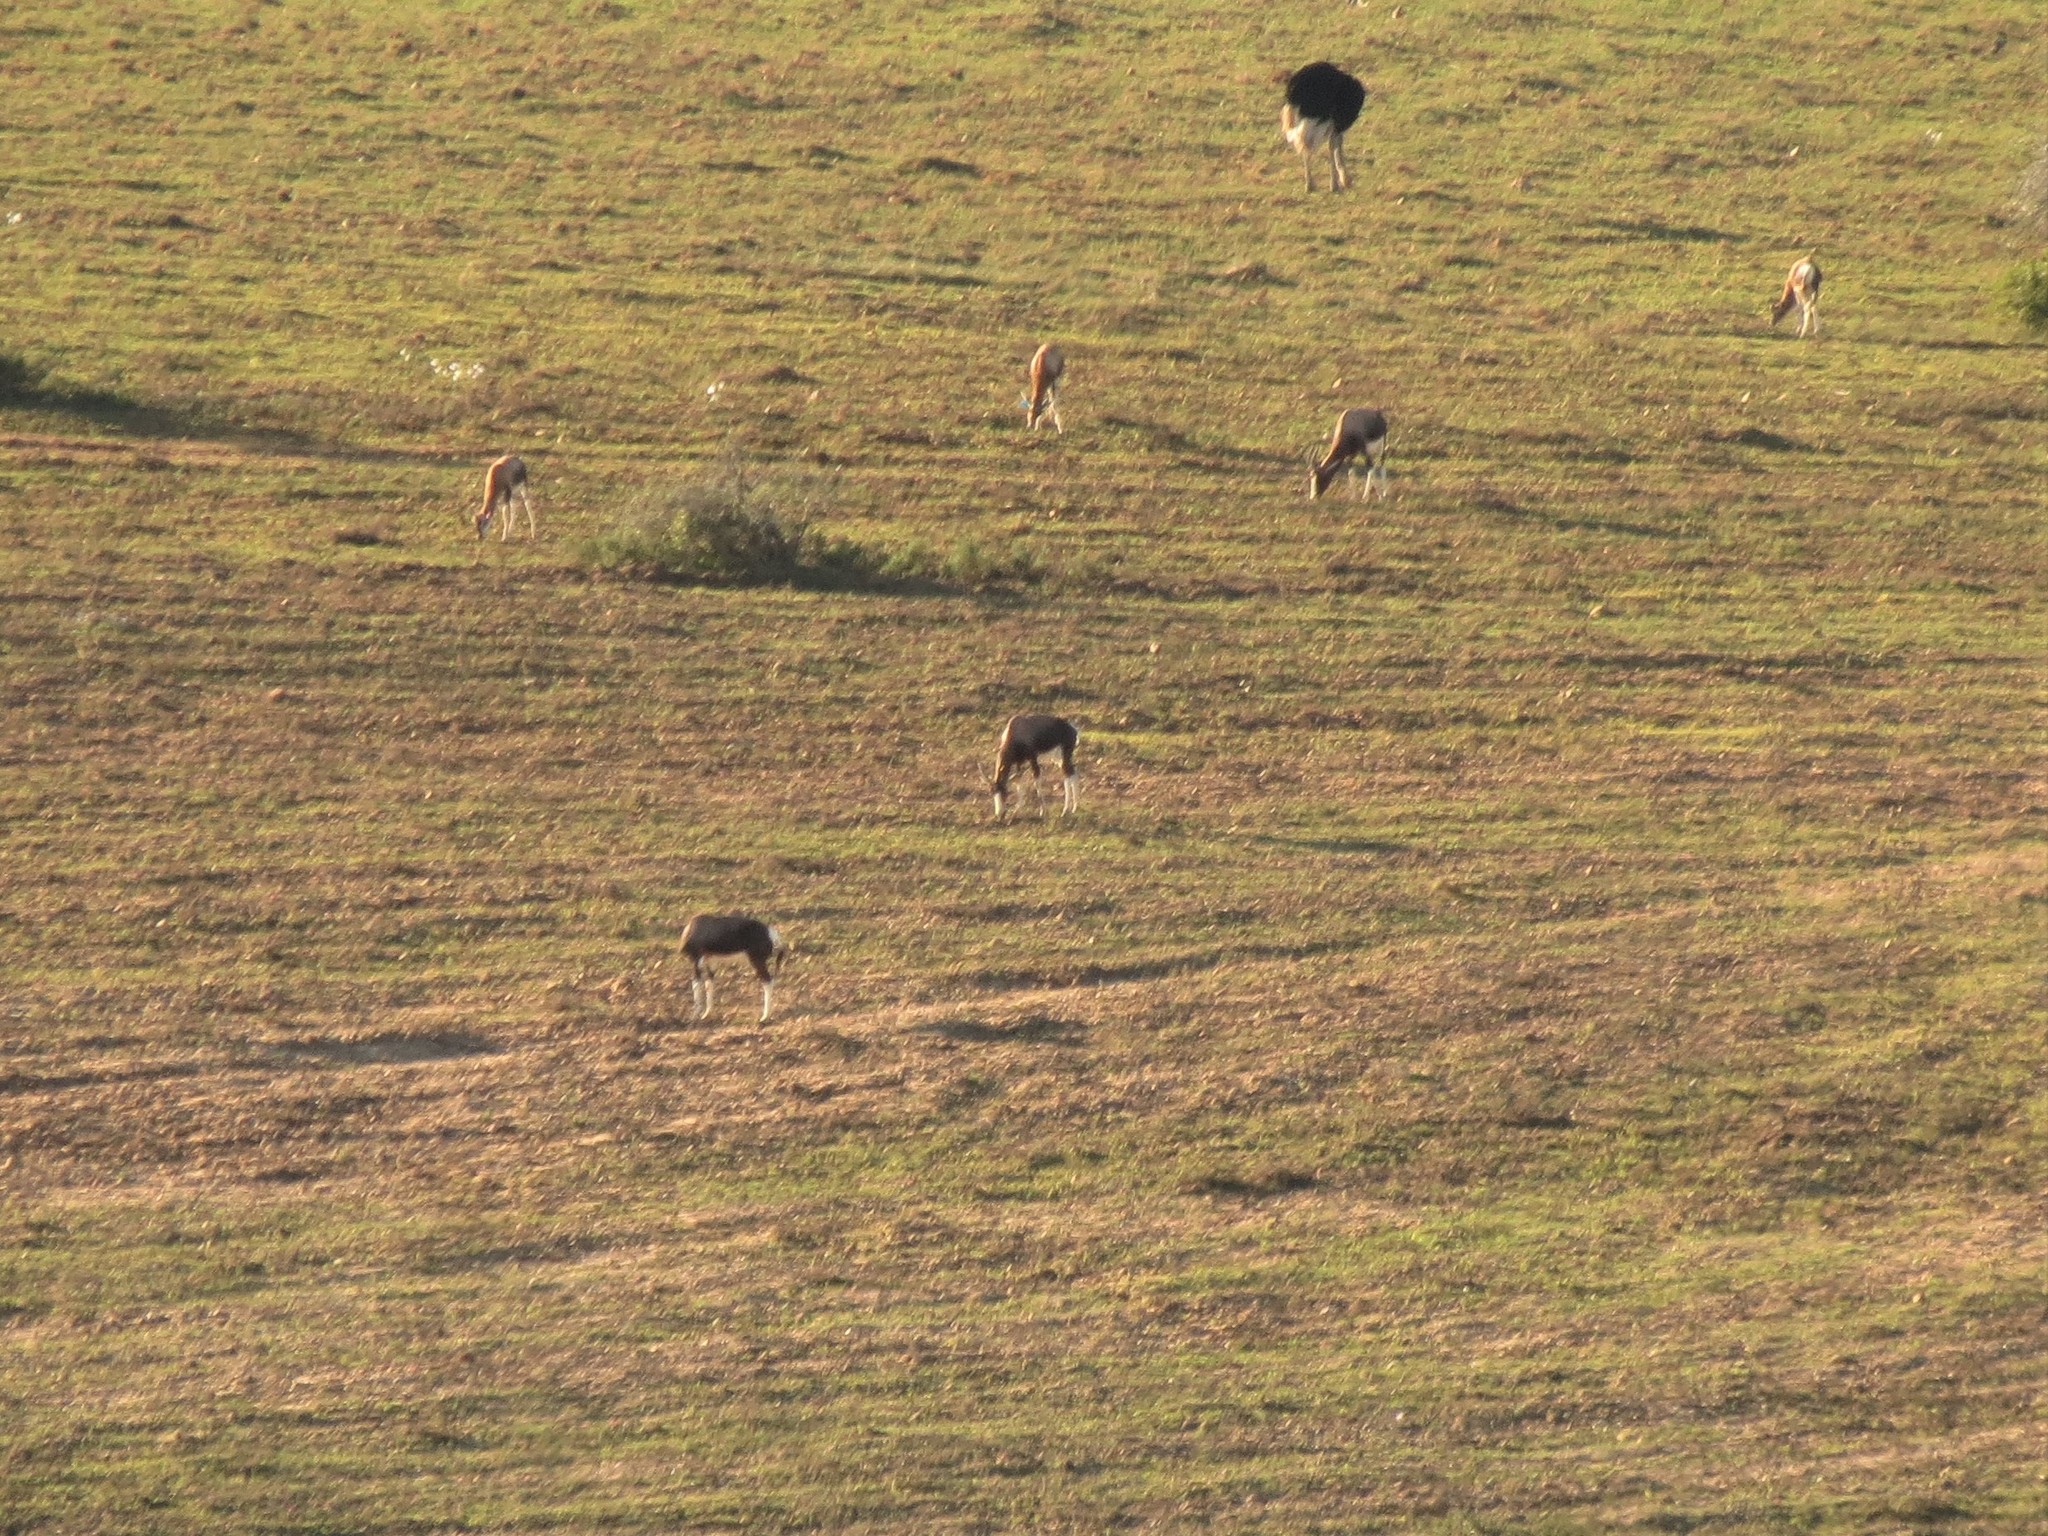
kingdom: Animalia
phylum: Chordata
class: Mammalia
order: Artiodactyla
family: Bovidae
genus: Damaliscus
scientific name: Damaliscus pygargus
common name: Bontebok
